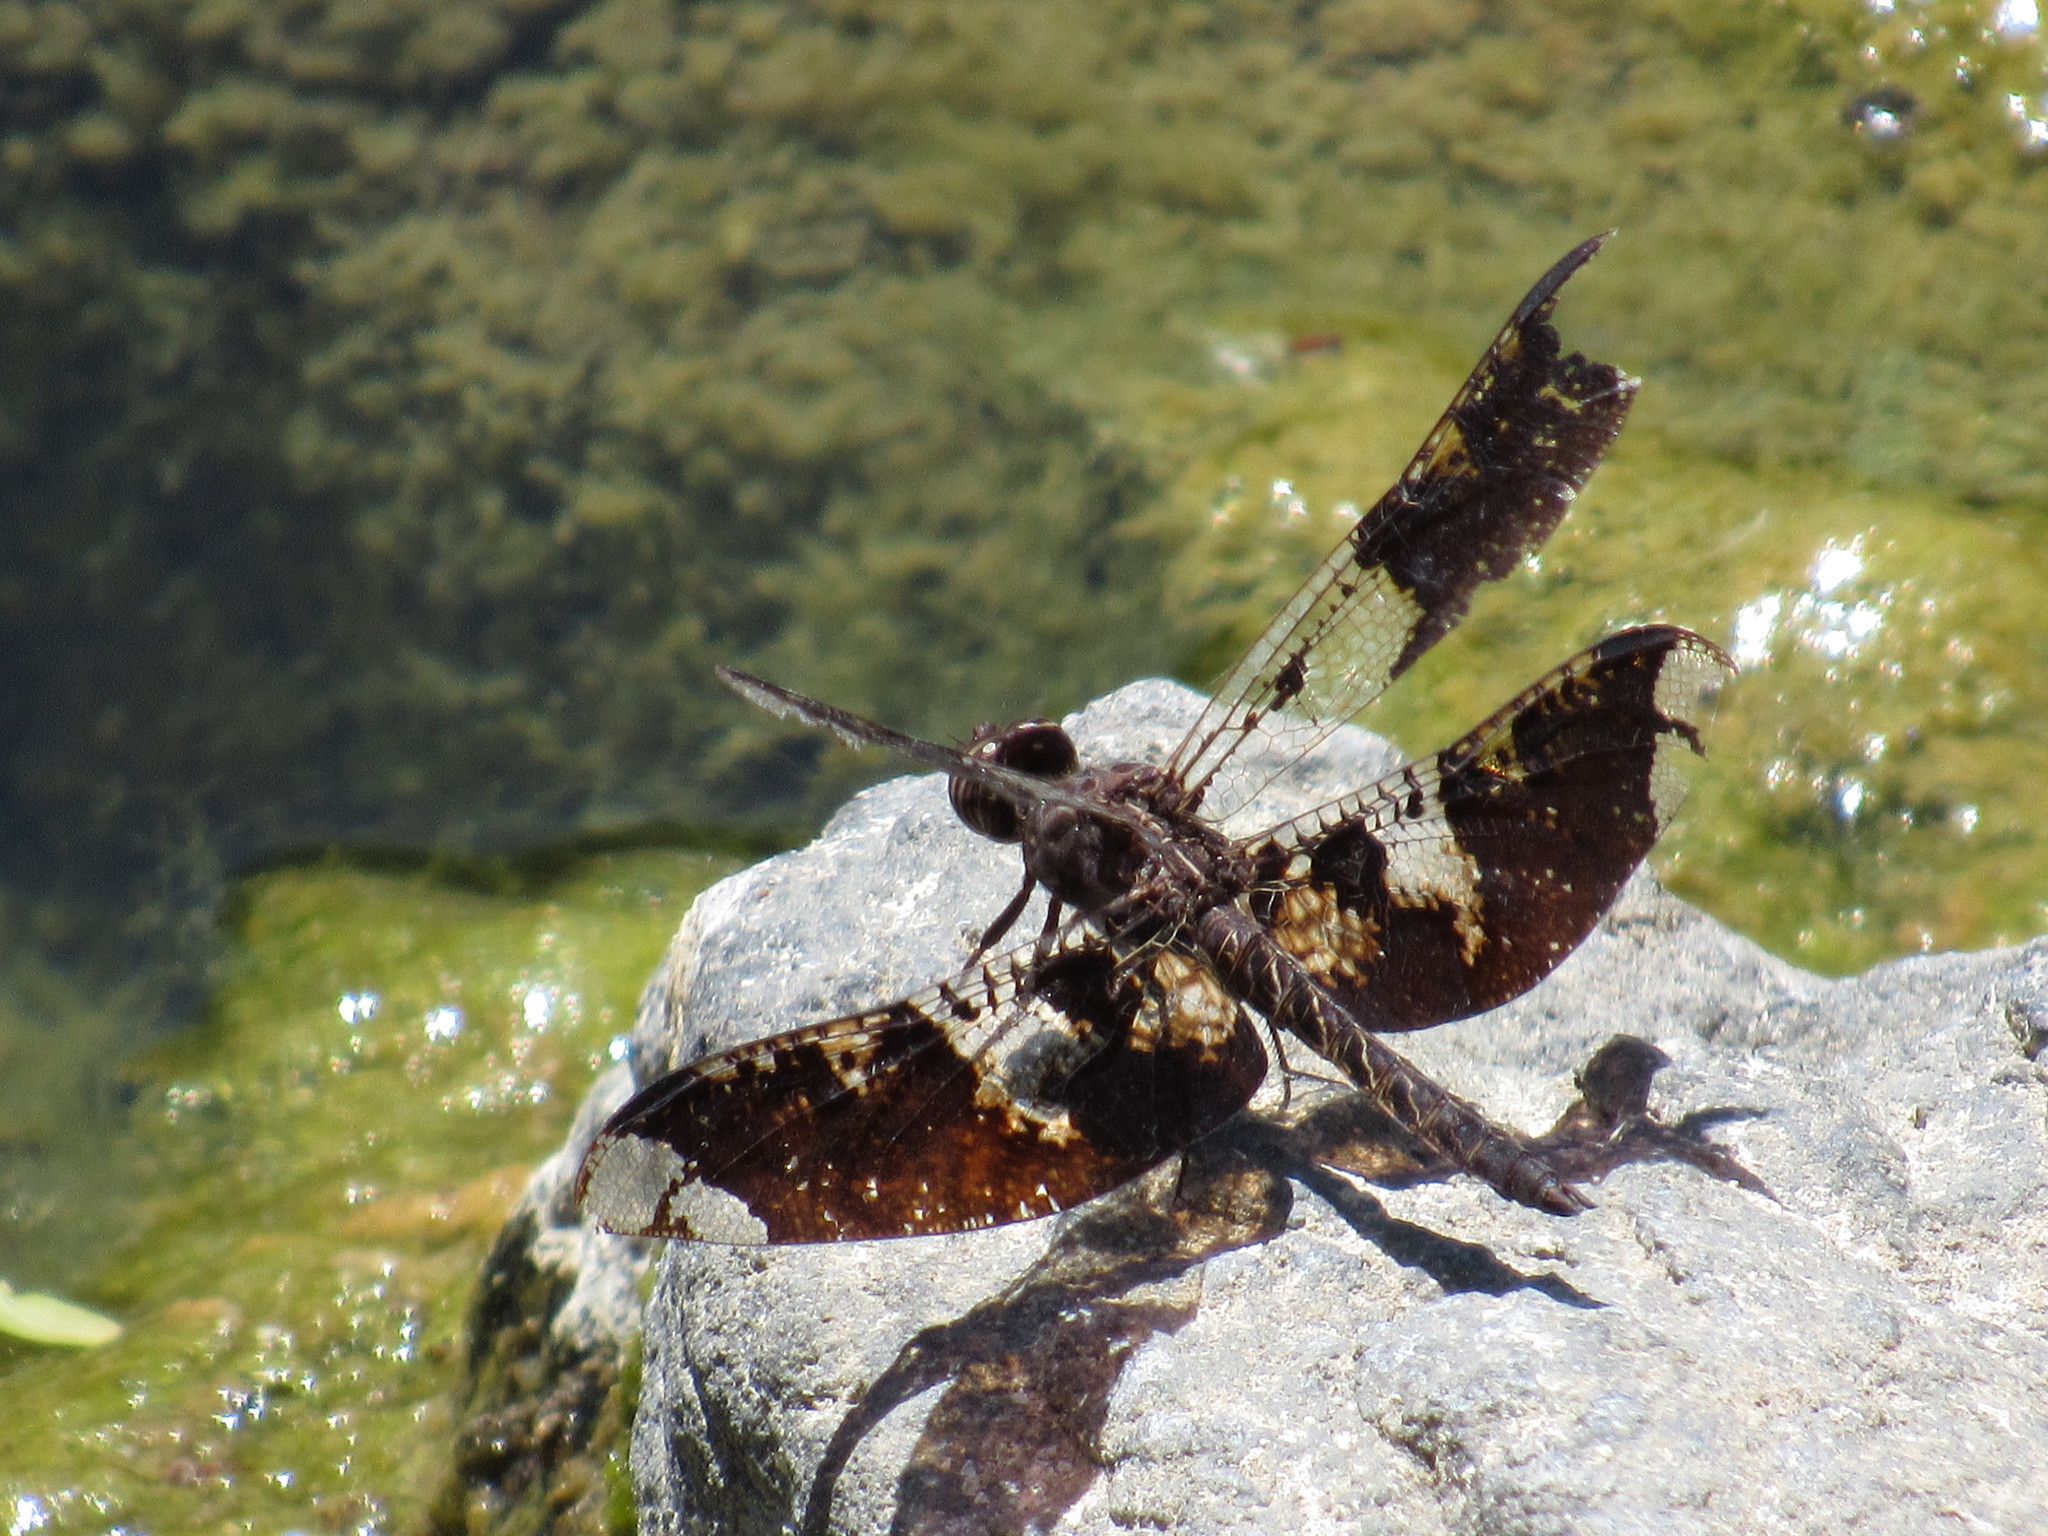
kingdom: Animalia
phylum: Arthropoda
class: Insecta
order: Odonata
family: Libellulidae
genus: Pseudoleon
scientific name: Pseudoleon superbus
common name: Filigree skimmer
